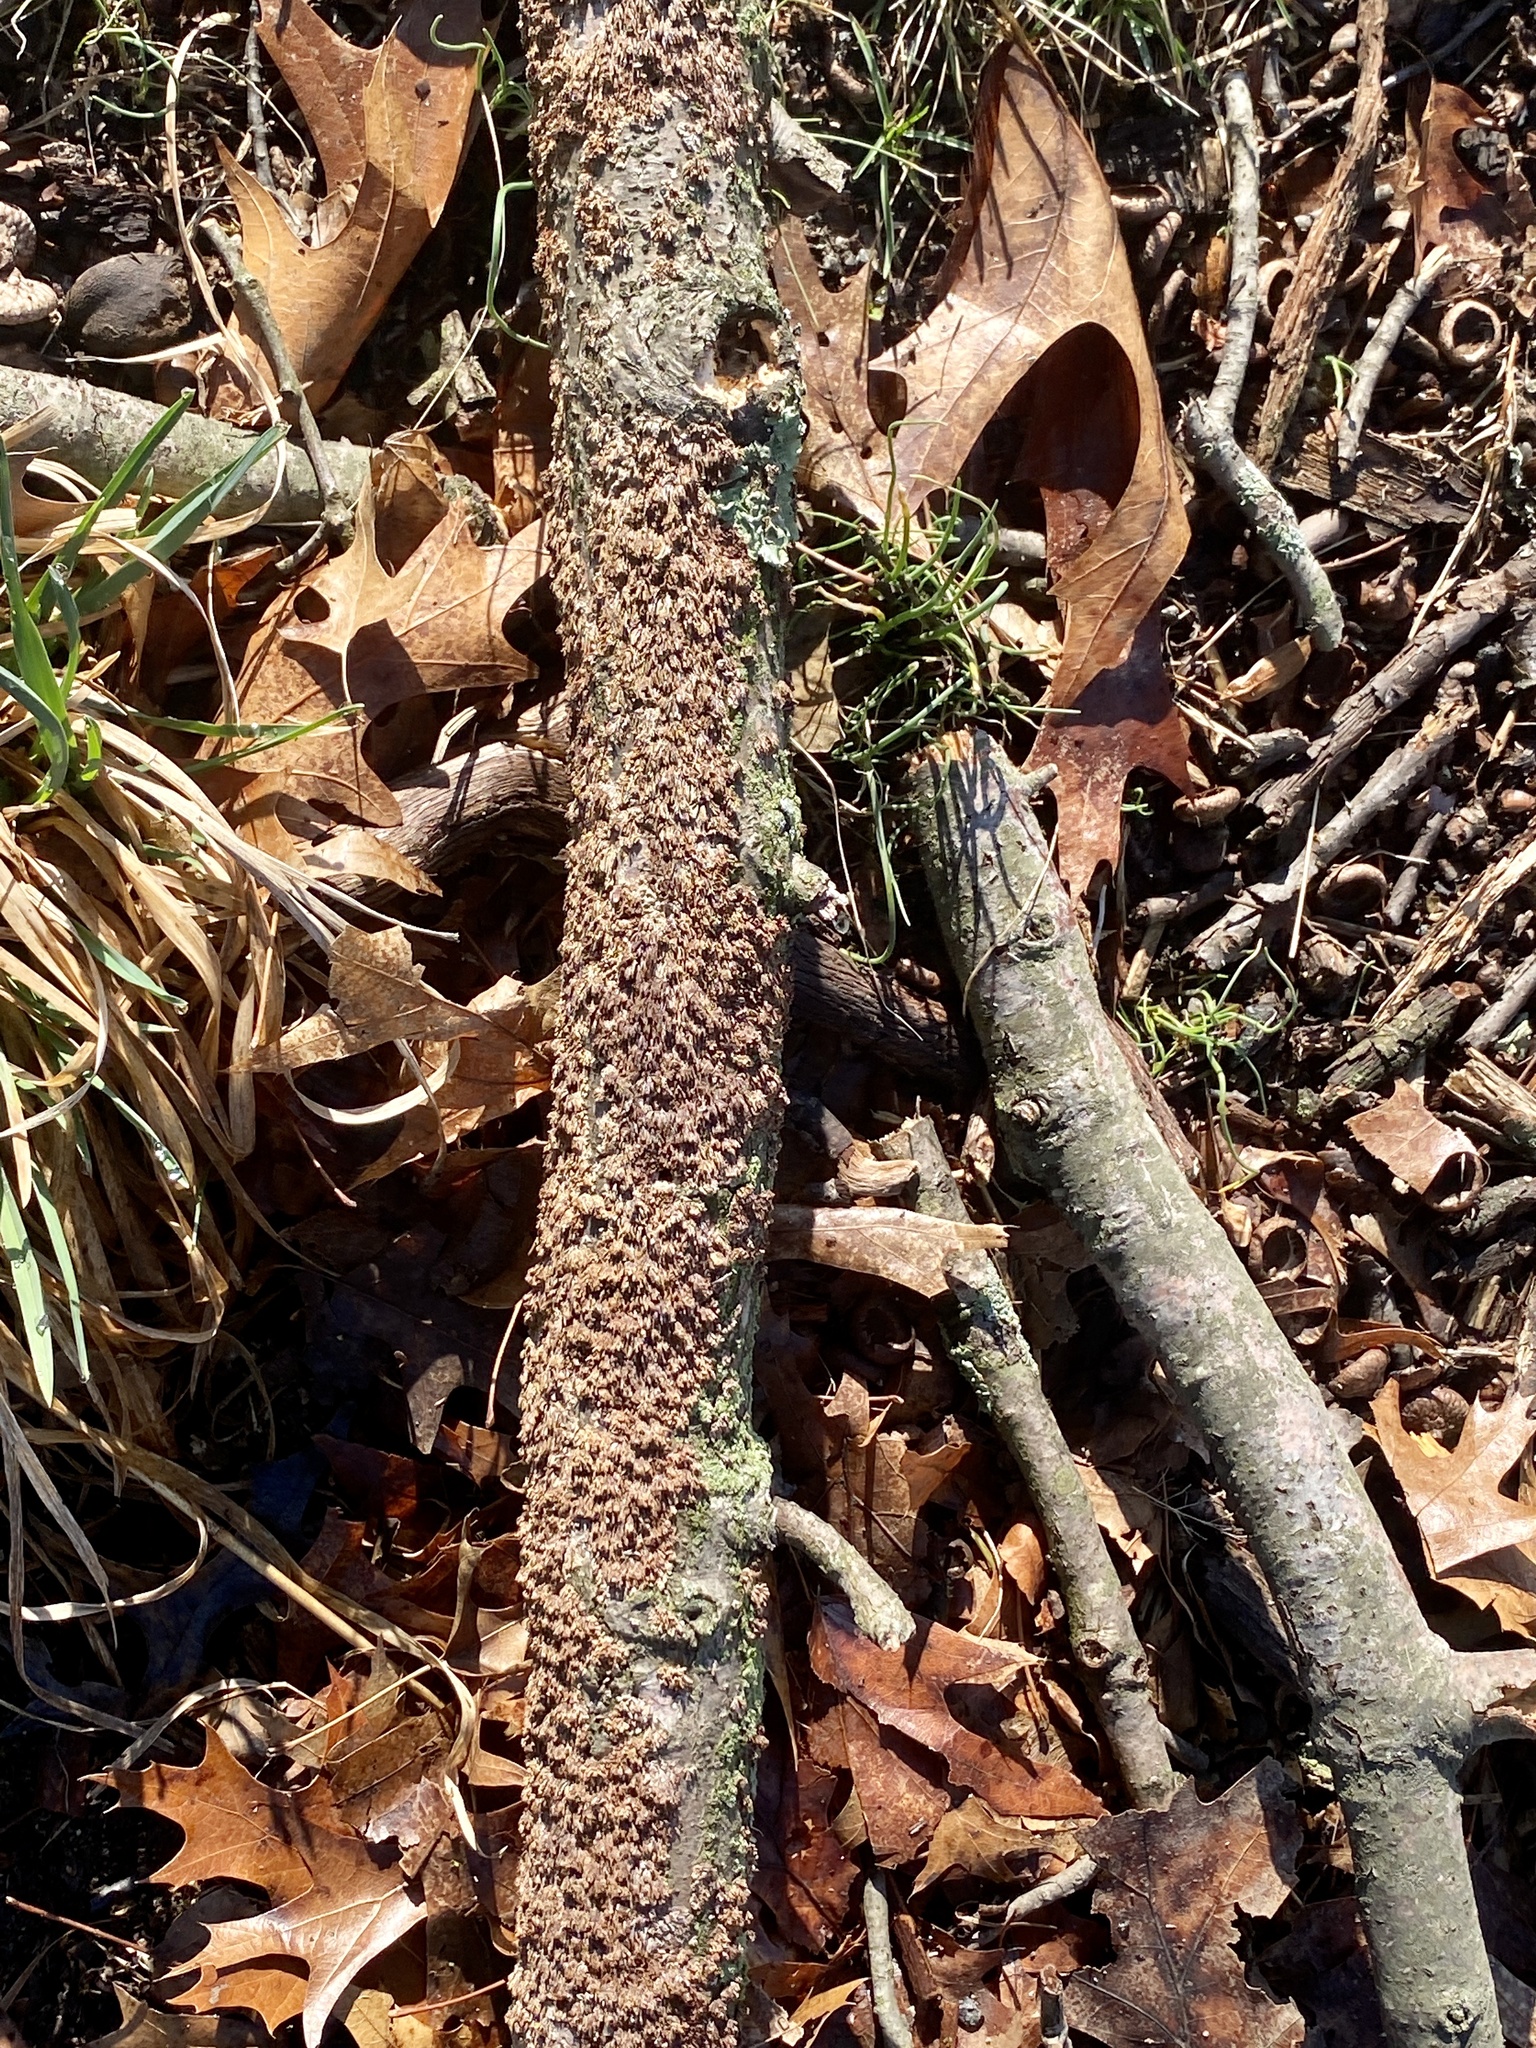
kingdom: Fungi
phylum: Basidiomycota
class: Agaricomycetes
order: Hymenochaetales
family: Hymenochaetaceae
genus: Hydnoporia
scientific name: Hydnoporia olivacea
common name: Brown-toothed crust fungus
